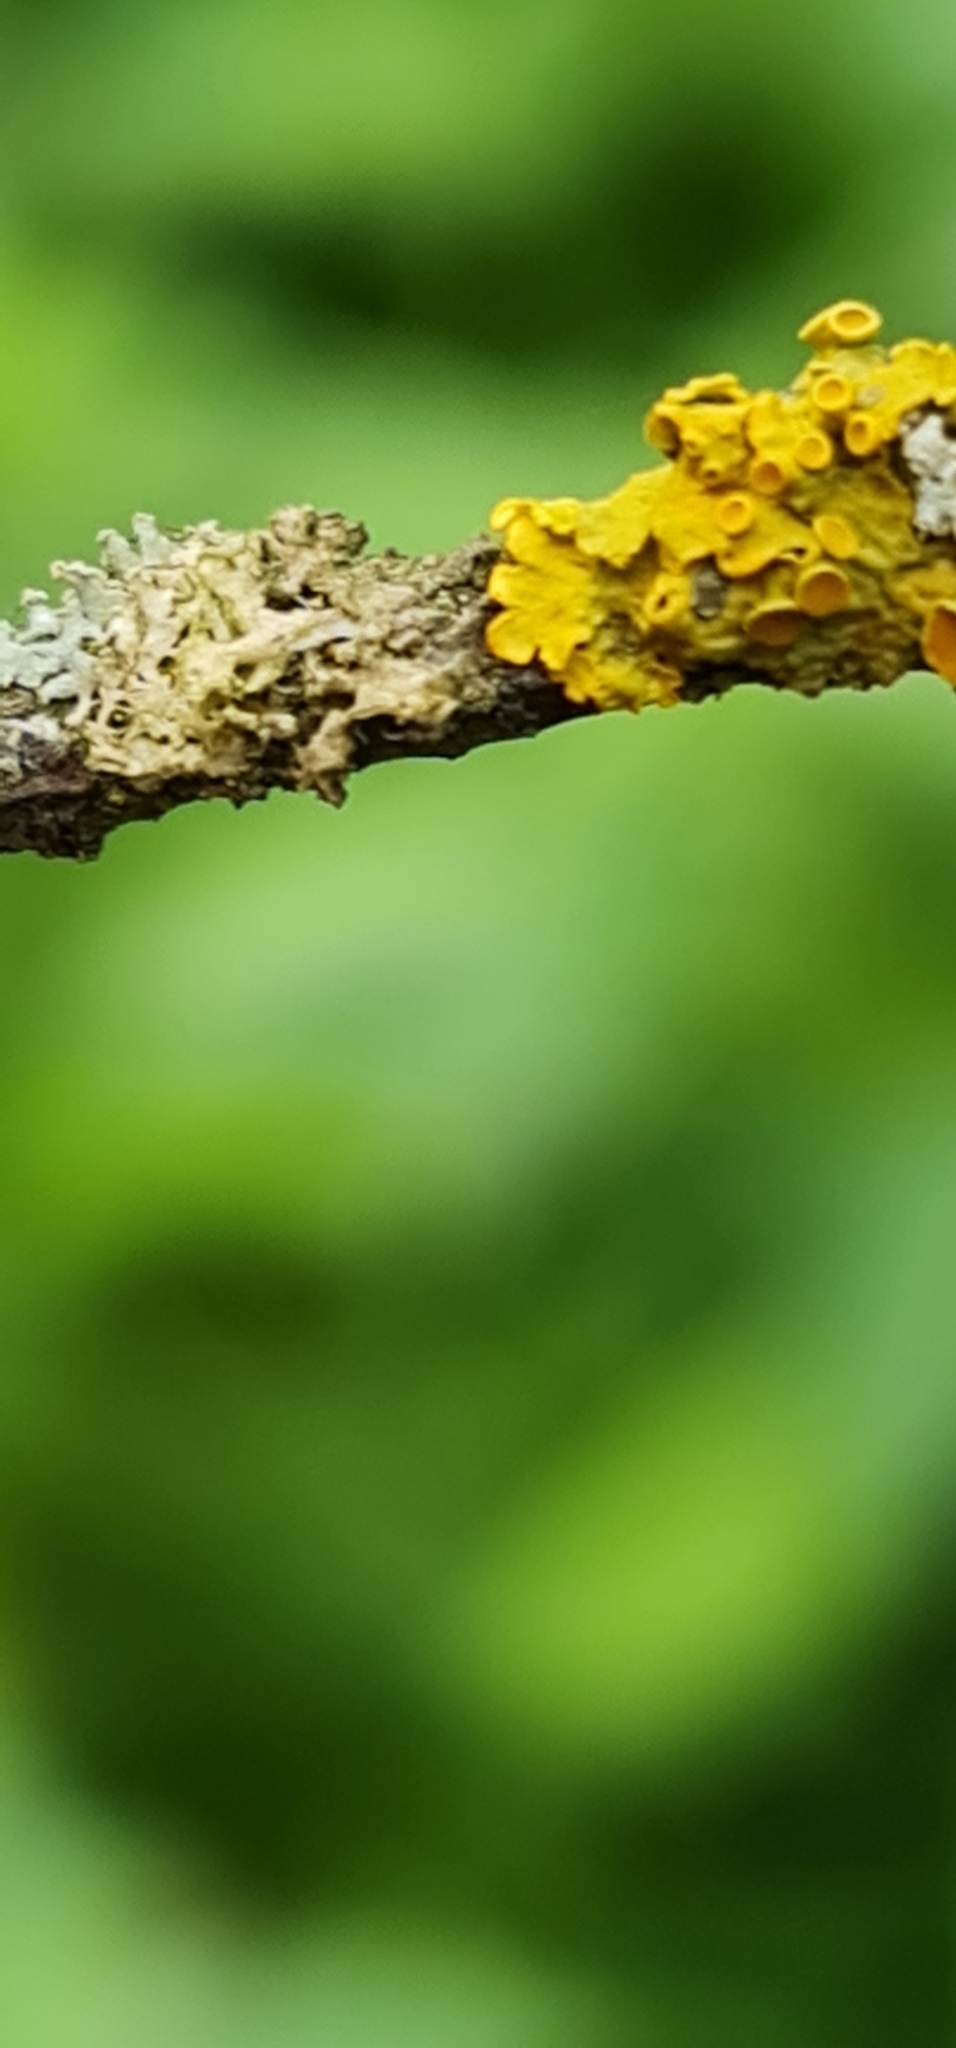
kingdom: Fungi
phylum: Ascomycota
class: Lecanoromycetes
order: Teloschistales
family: Teloschistaceae
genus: Xanthoria
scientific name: Xanthoria parietina
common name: Common orange lichen
